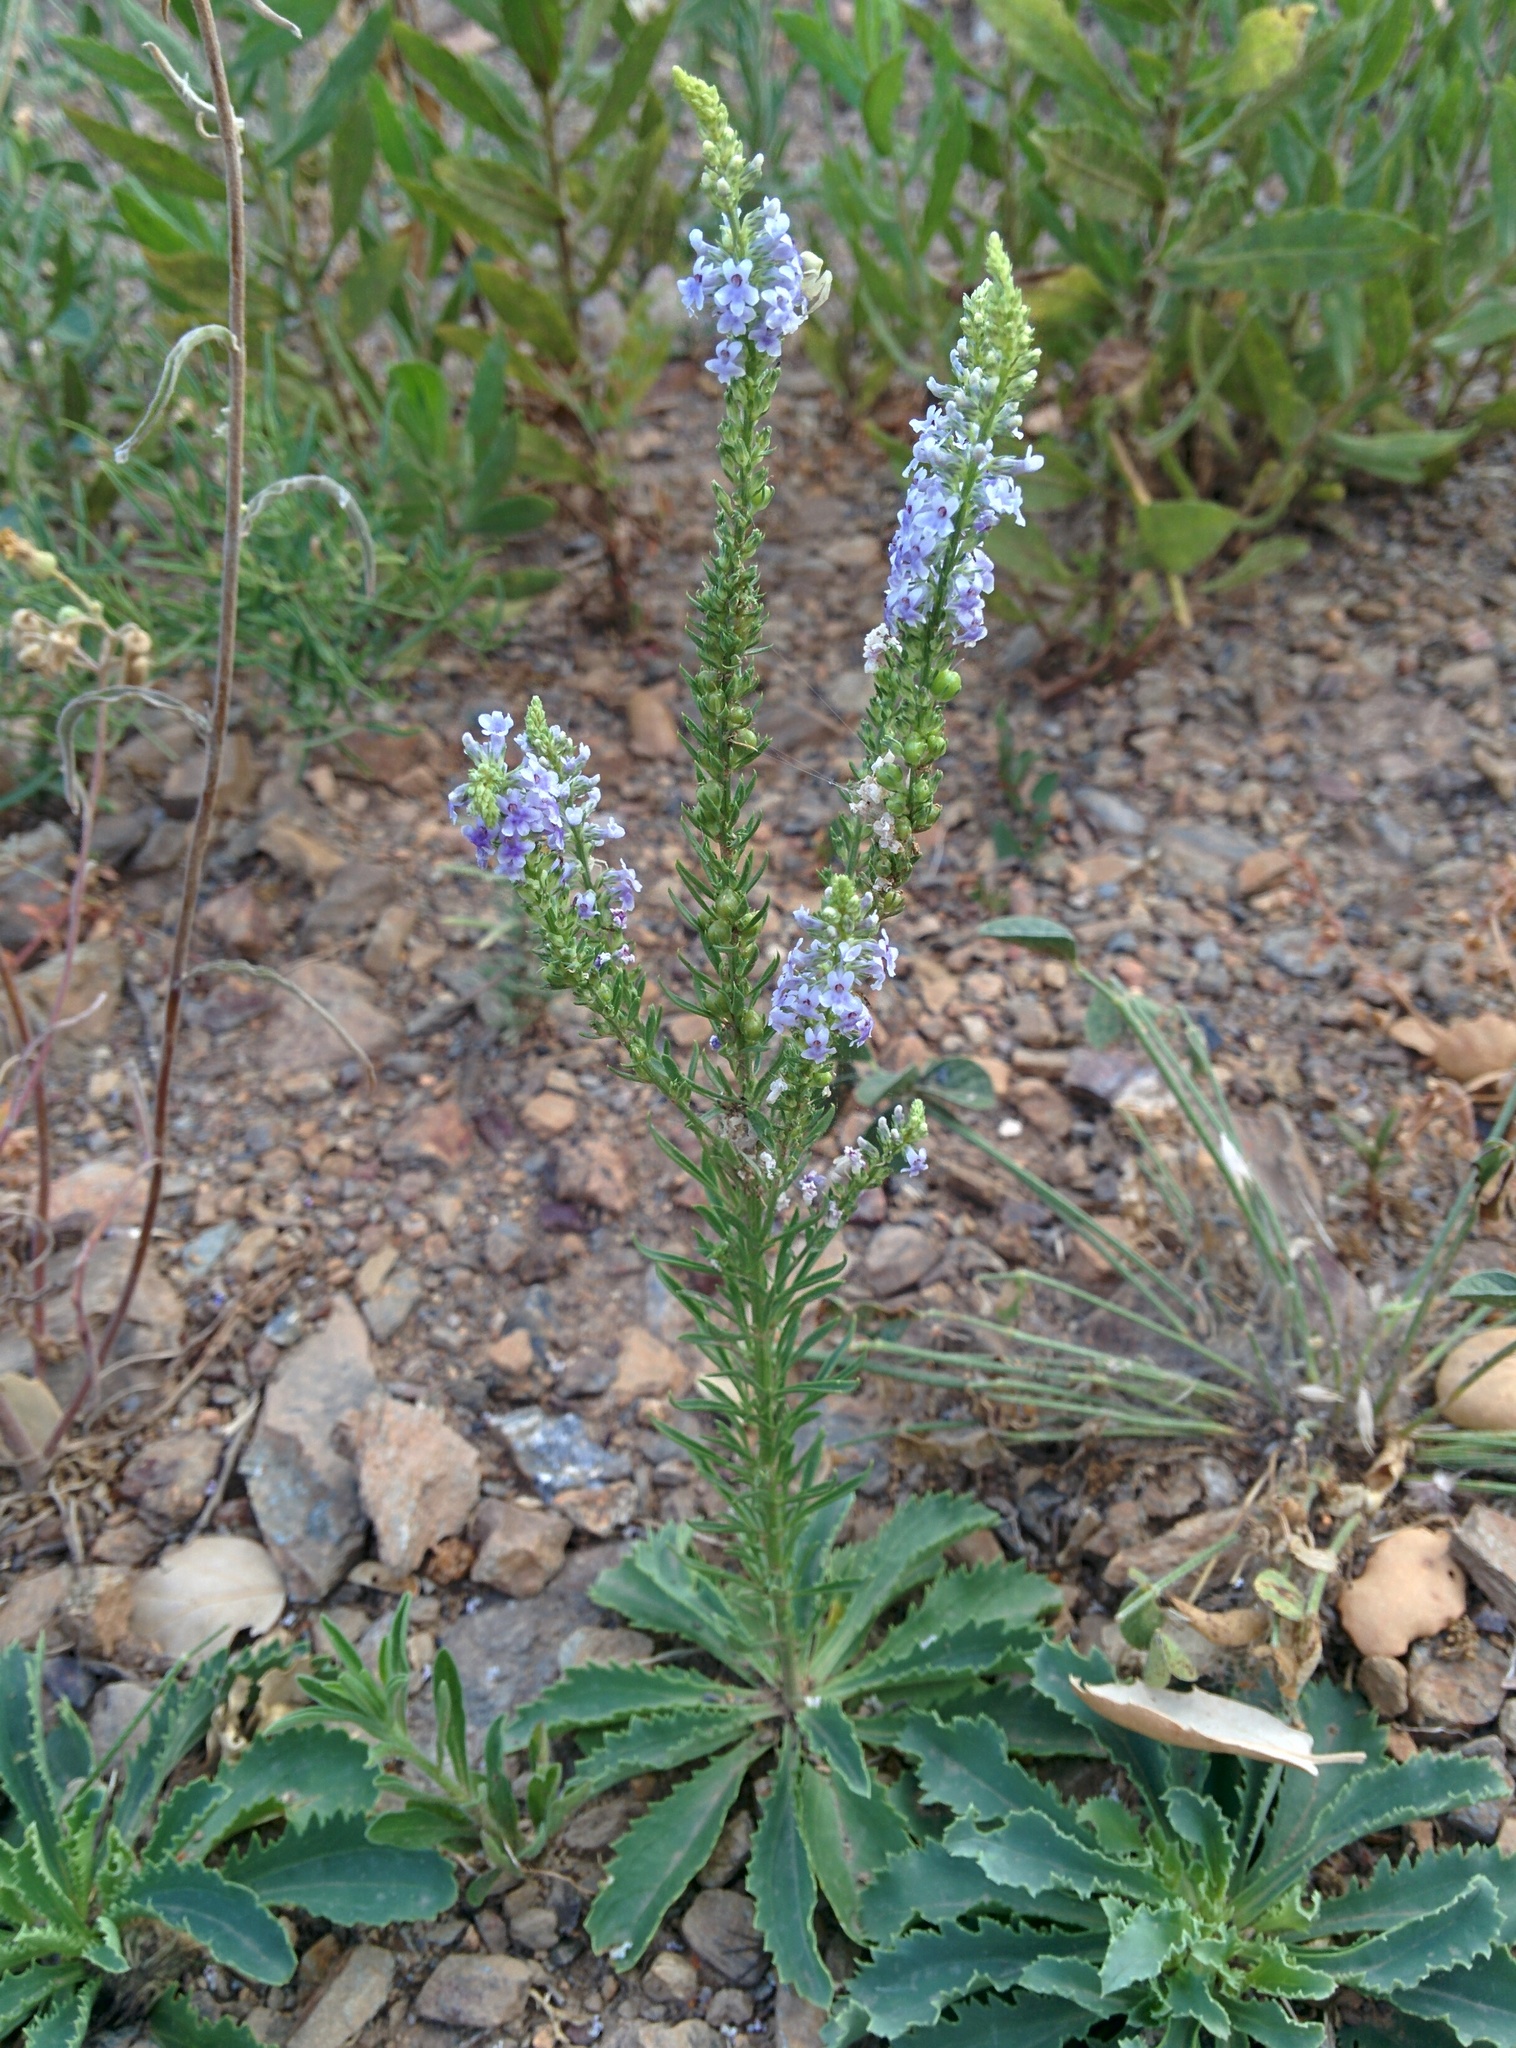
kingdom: Plantae
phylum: Tracheophyta
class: Magnoliopsida
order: Lamiales
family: Plantaginaceae
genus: Anarrhinum
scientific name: Anarrhinum bellidifolium
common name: Daisy-leaved toadflax
